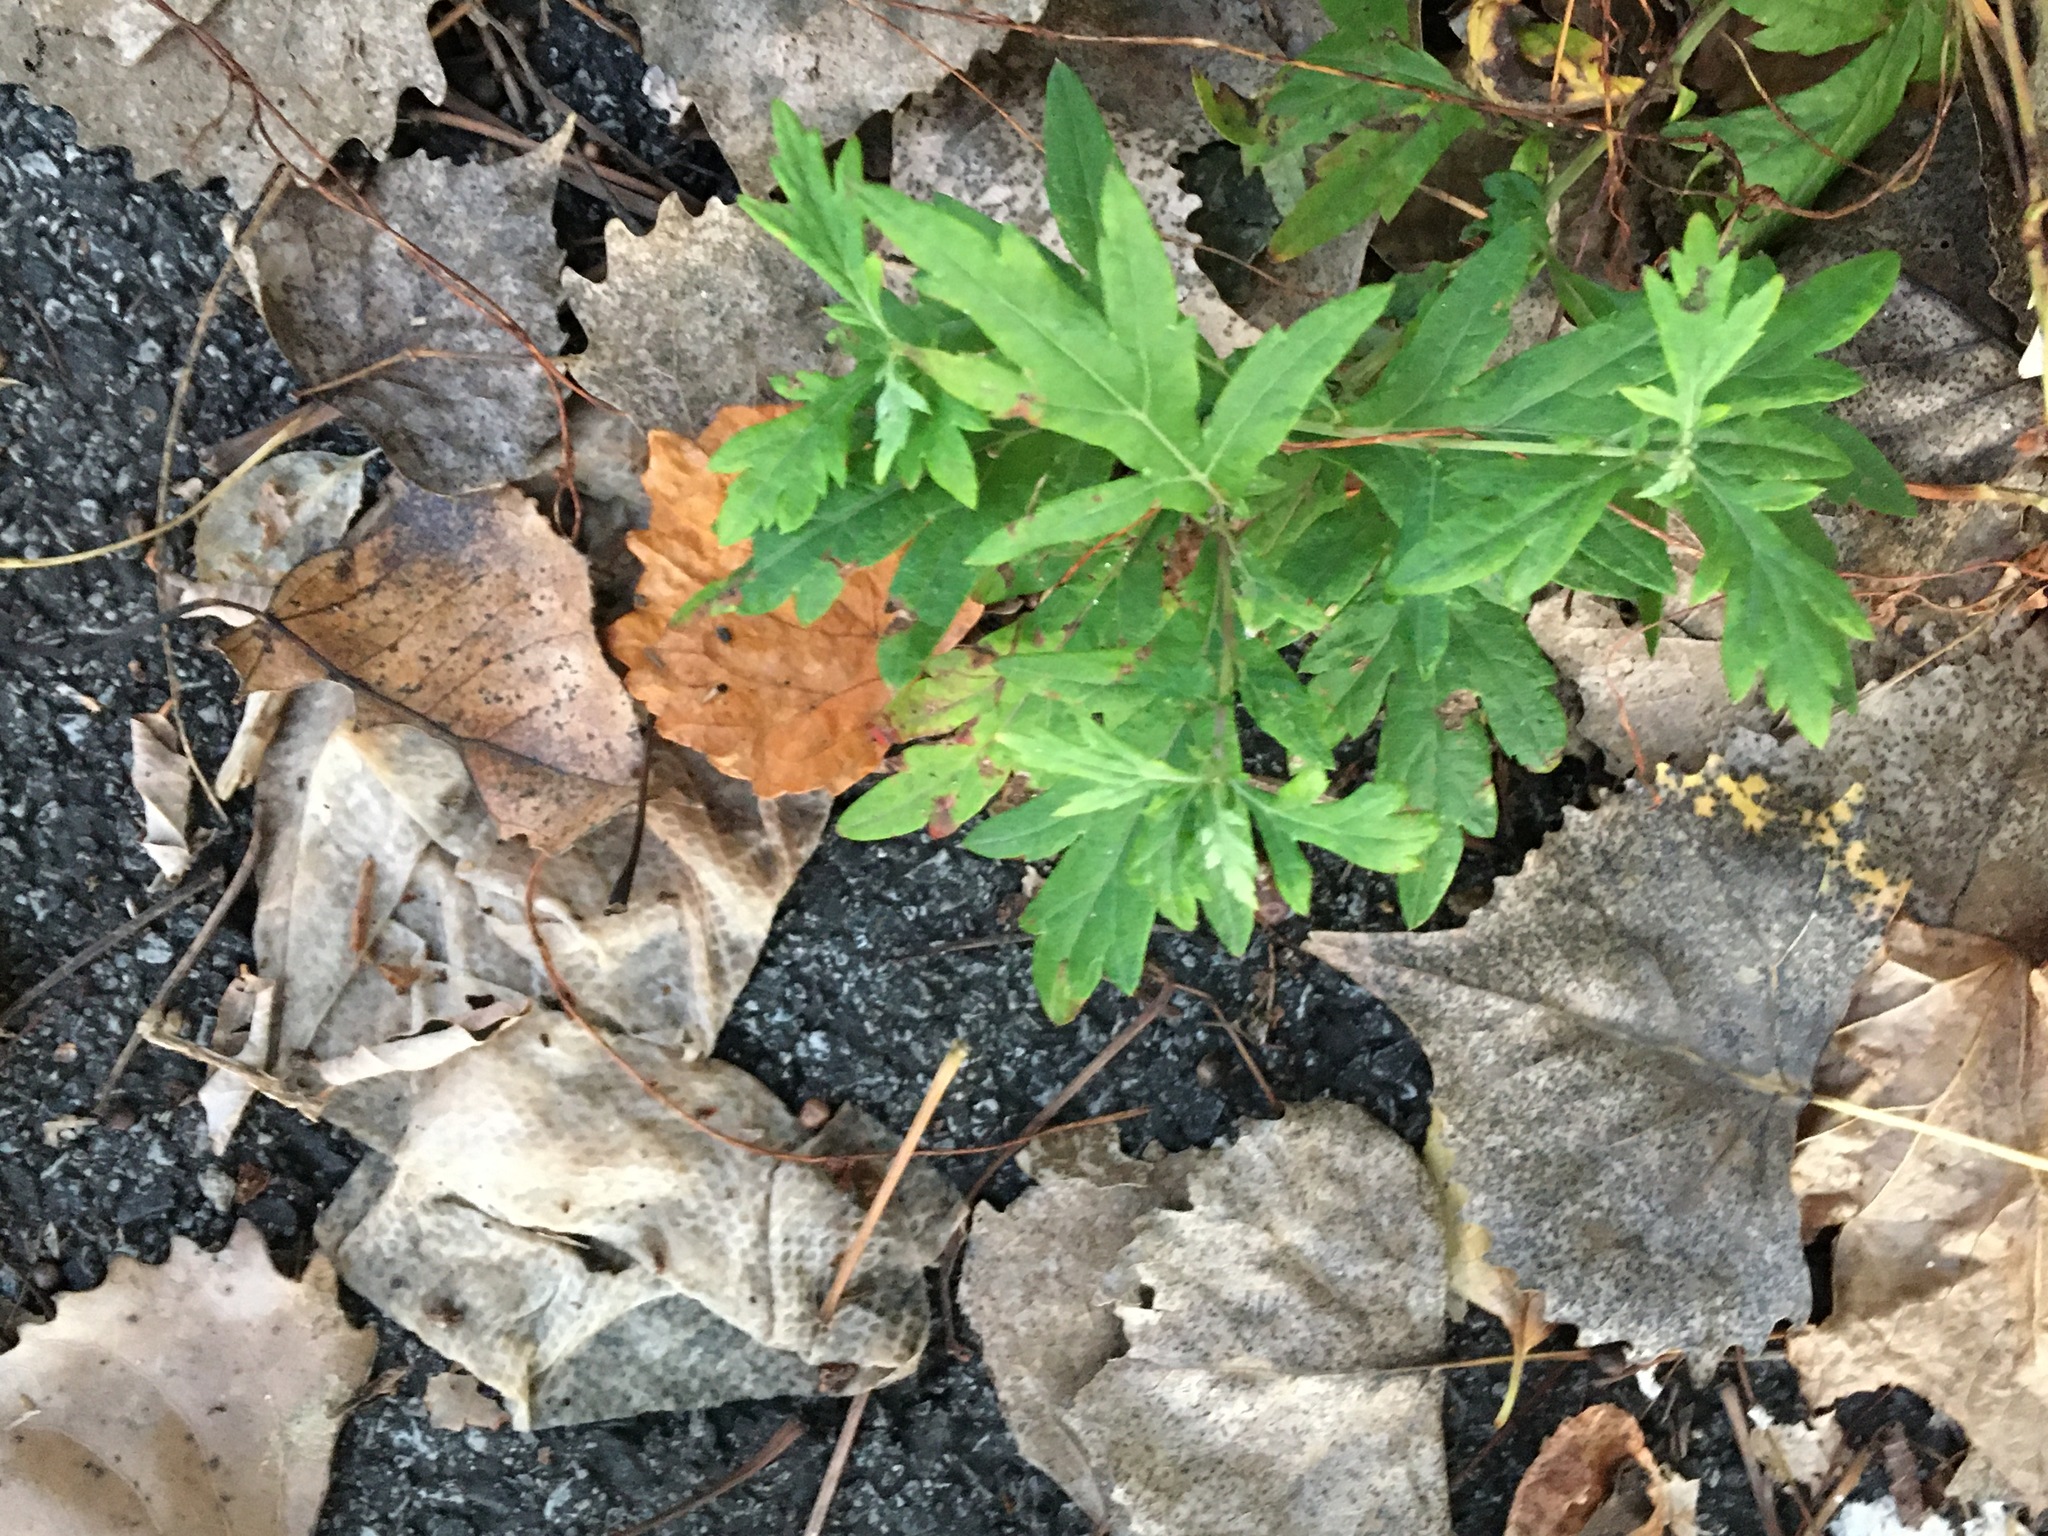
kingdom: Plantae
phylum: Tracheophyta
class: Magnoliopsida
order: Asterales
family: Asteraceae
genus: Artemisia
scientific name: Artemisia vulgaris
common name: Mugwort
